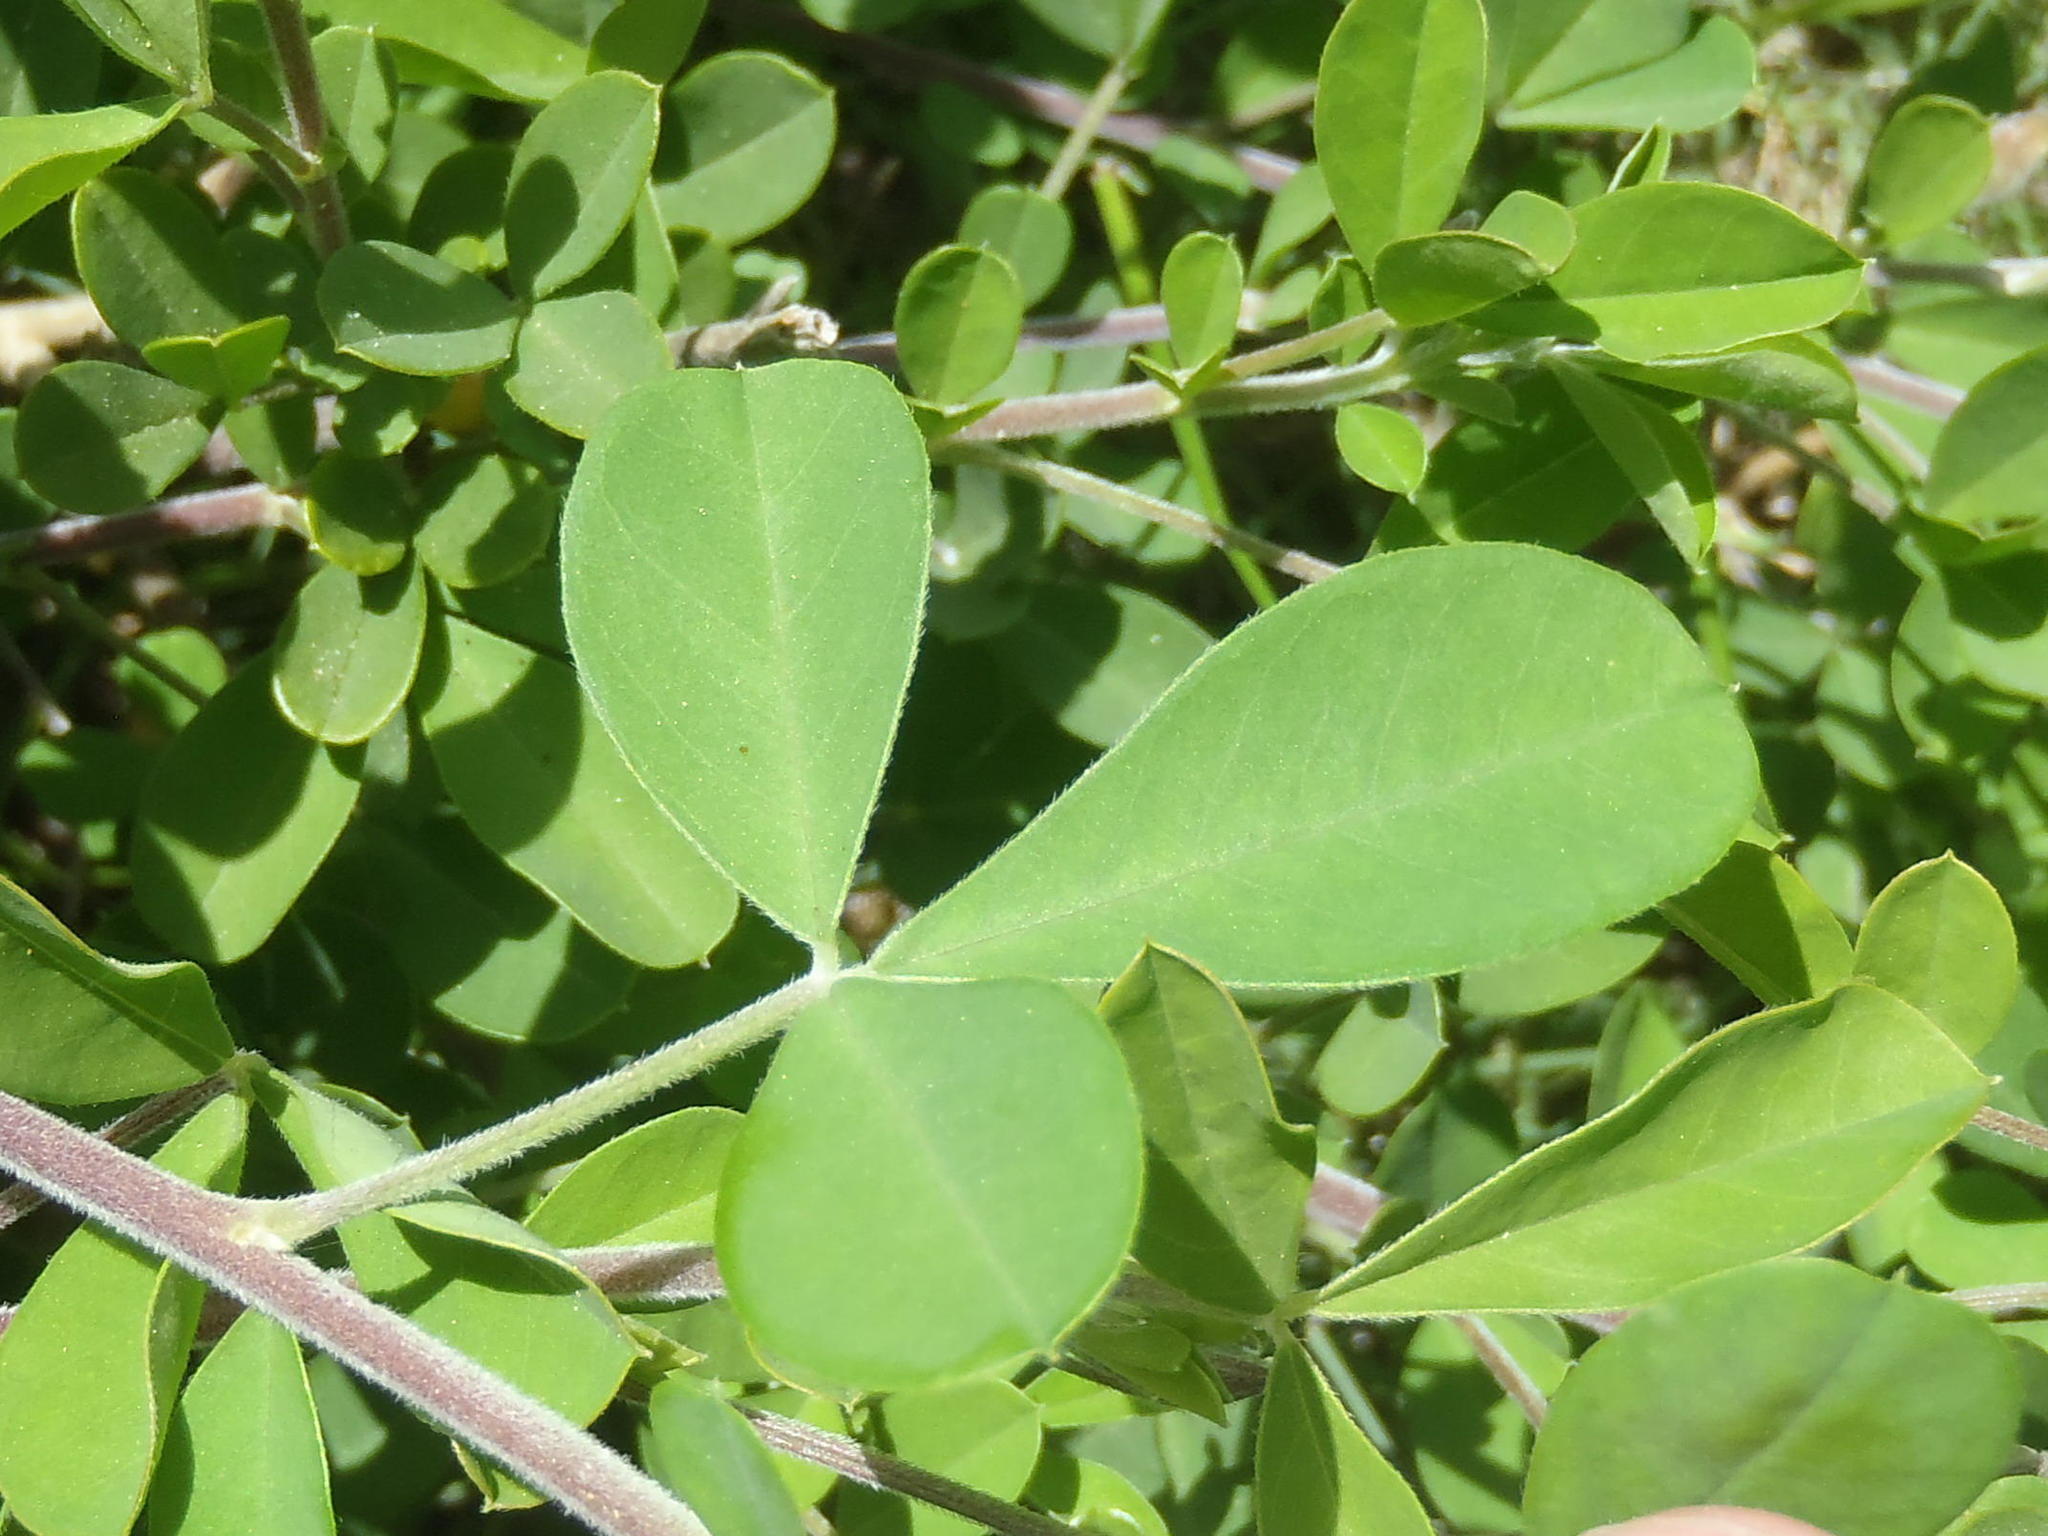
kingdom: Plantae
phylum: Tracheophyta
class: Magnoliopsida
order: Fabales
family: Fabaceae
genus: Crotalaria
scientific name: Crotalaria capensis
